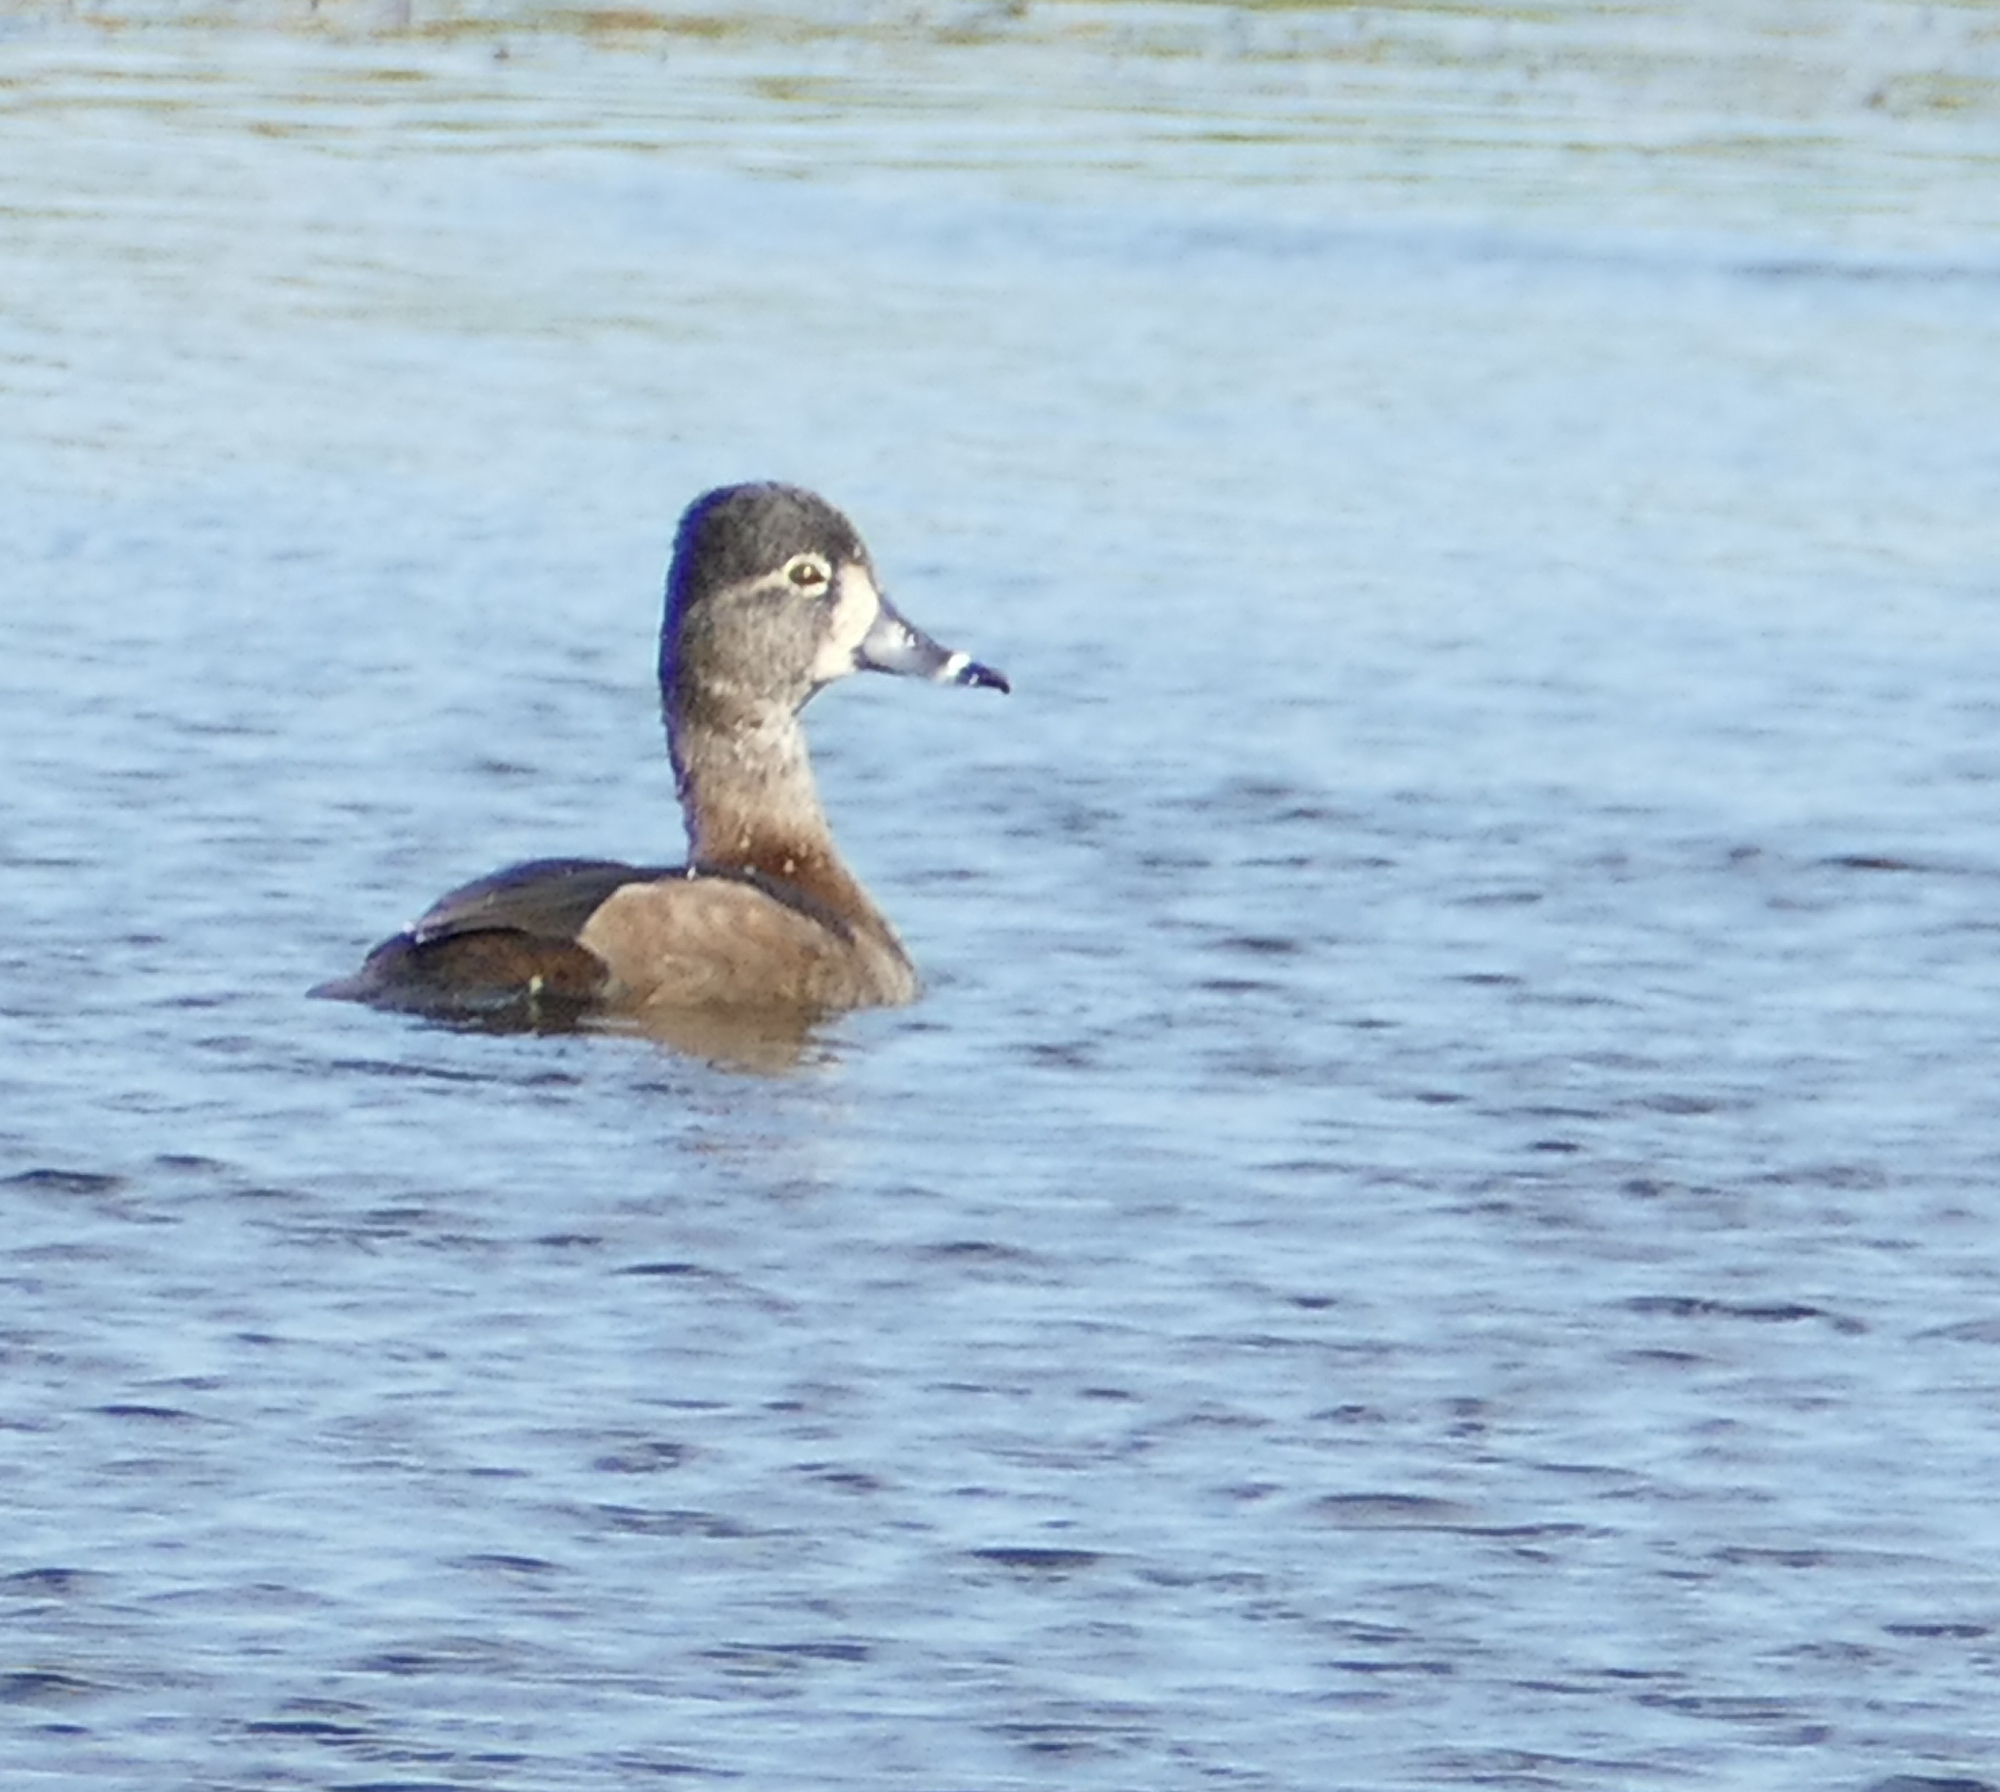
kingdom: Animalia
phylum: Chordata
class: Aves
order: Anseriformes
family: Anatidae
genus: Aythya
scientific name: Aythya collaris
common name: Ring-necked duck
